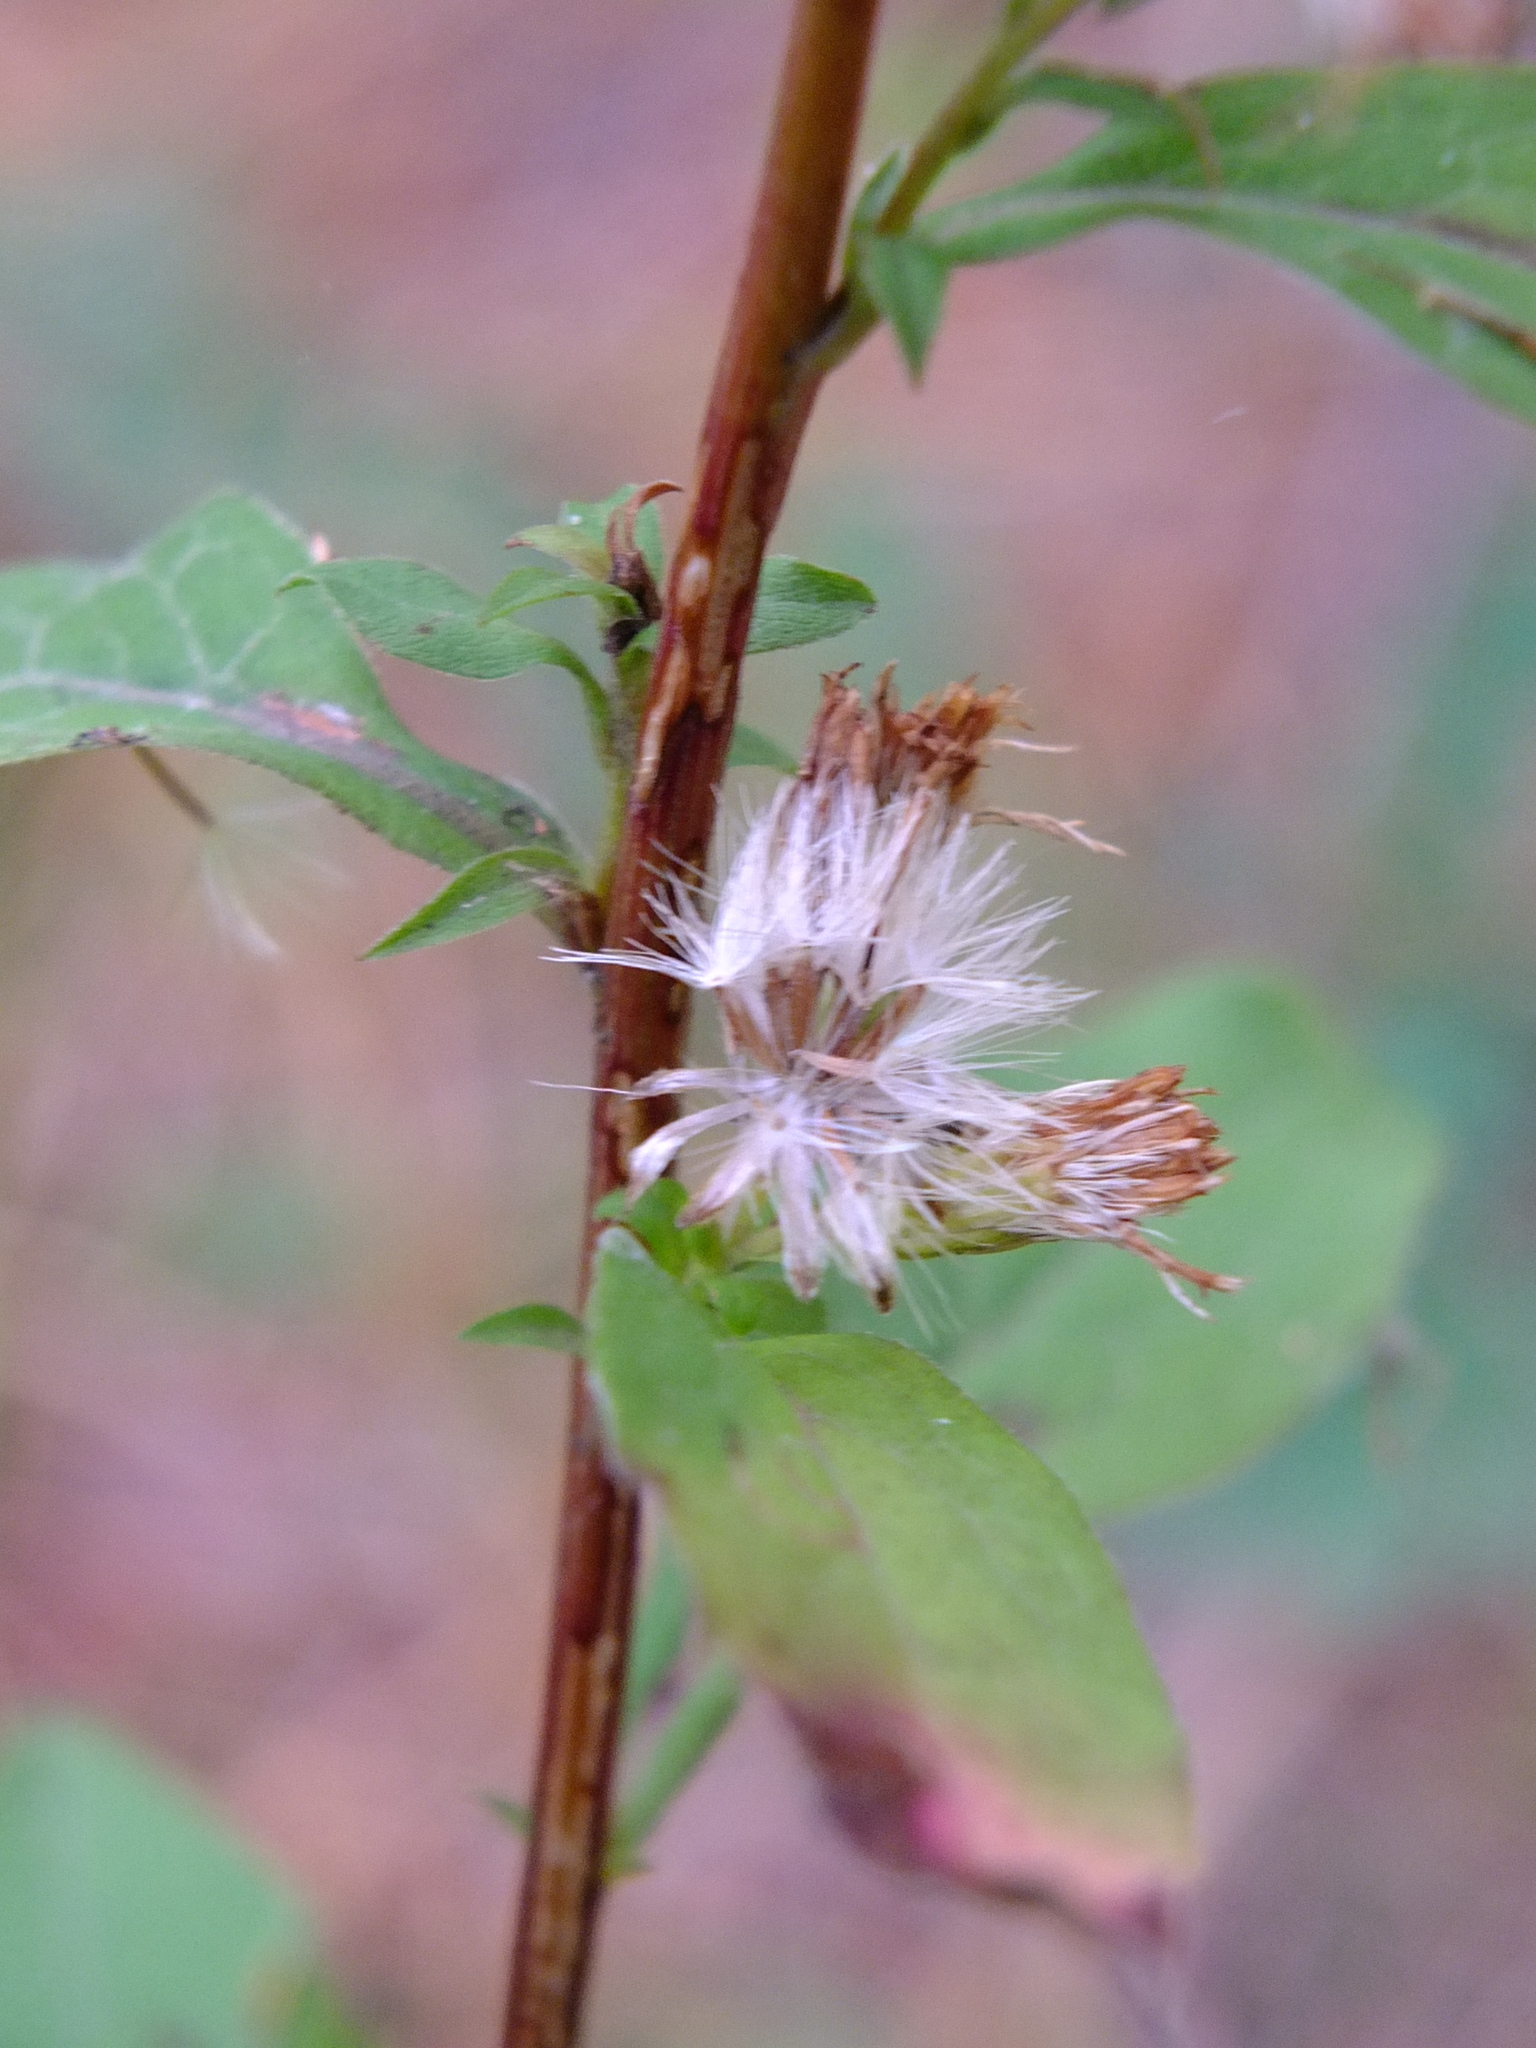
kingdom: Plantae
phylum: Tracheophyta
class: Magnoliopsida
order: Asterales
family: Asteraceae
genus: Solidago
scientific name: Solidago virgaurea
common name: Goldenrod
